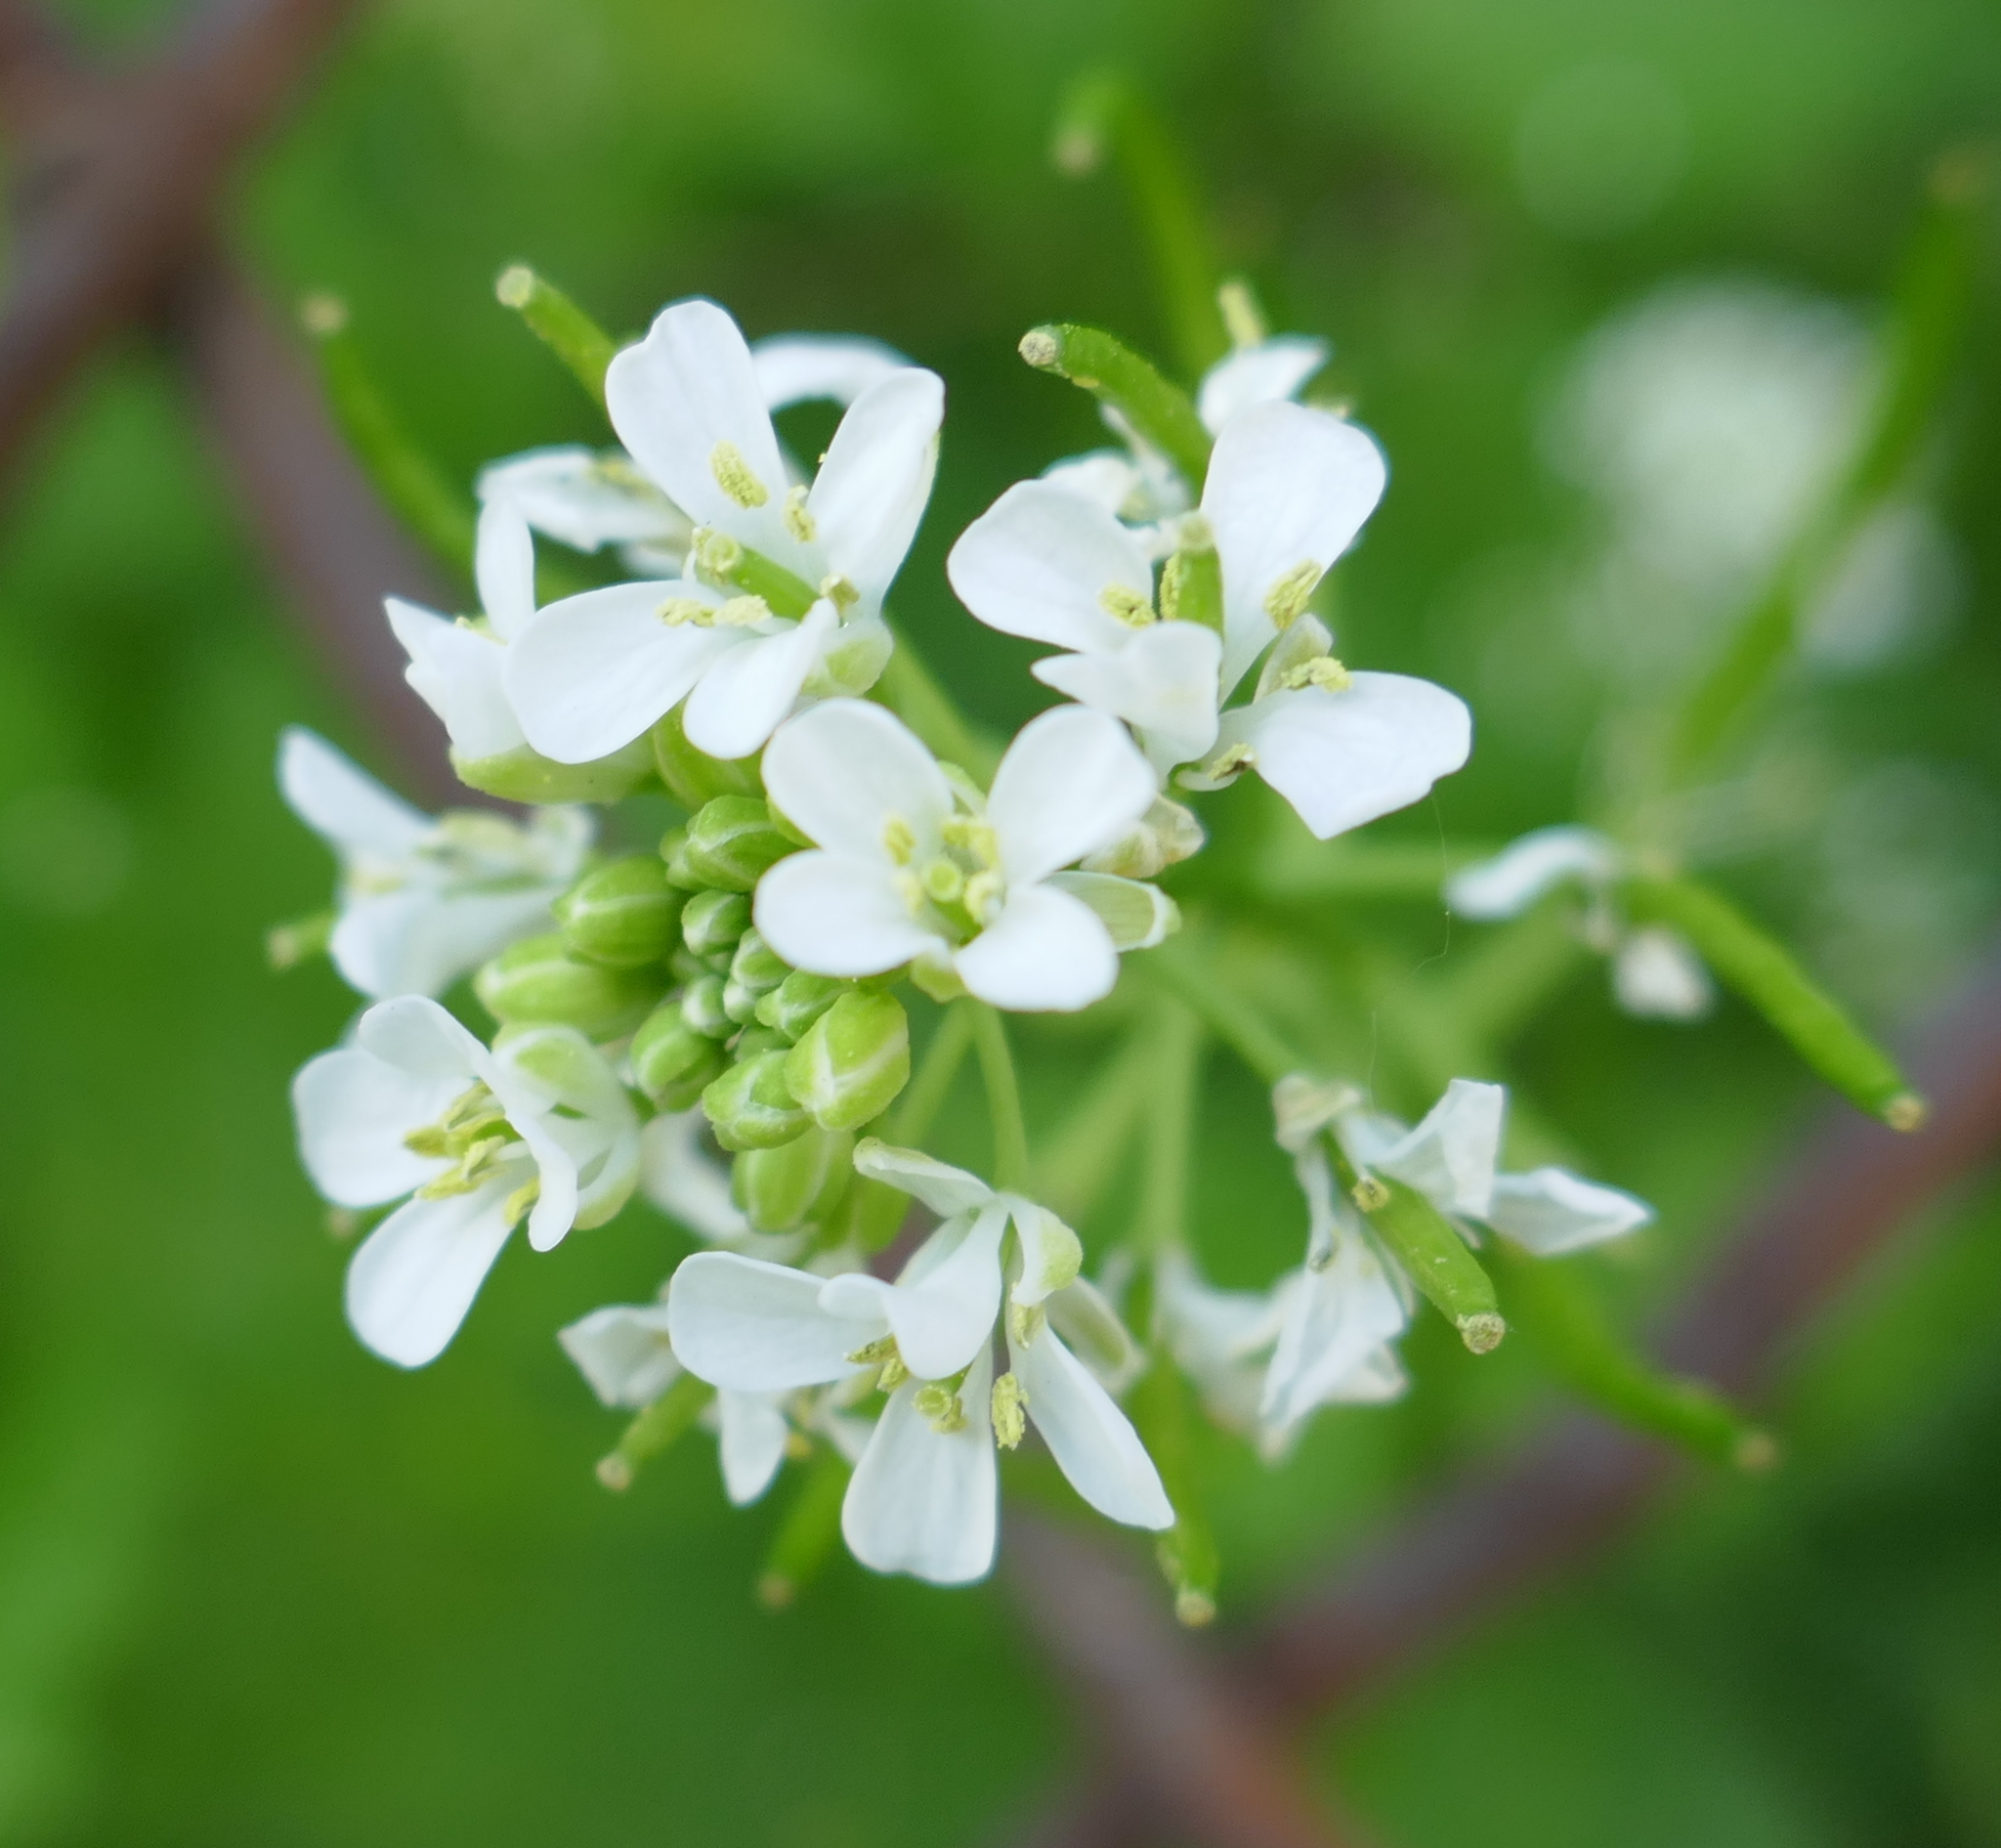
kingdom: Plantae
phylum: Tracheophyta
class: Magnoliopsida
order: Brassicales
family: Brassicaceae
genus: Alliaria
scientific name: Alliaria petiolata
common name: Garlic mustard
